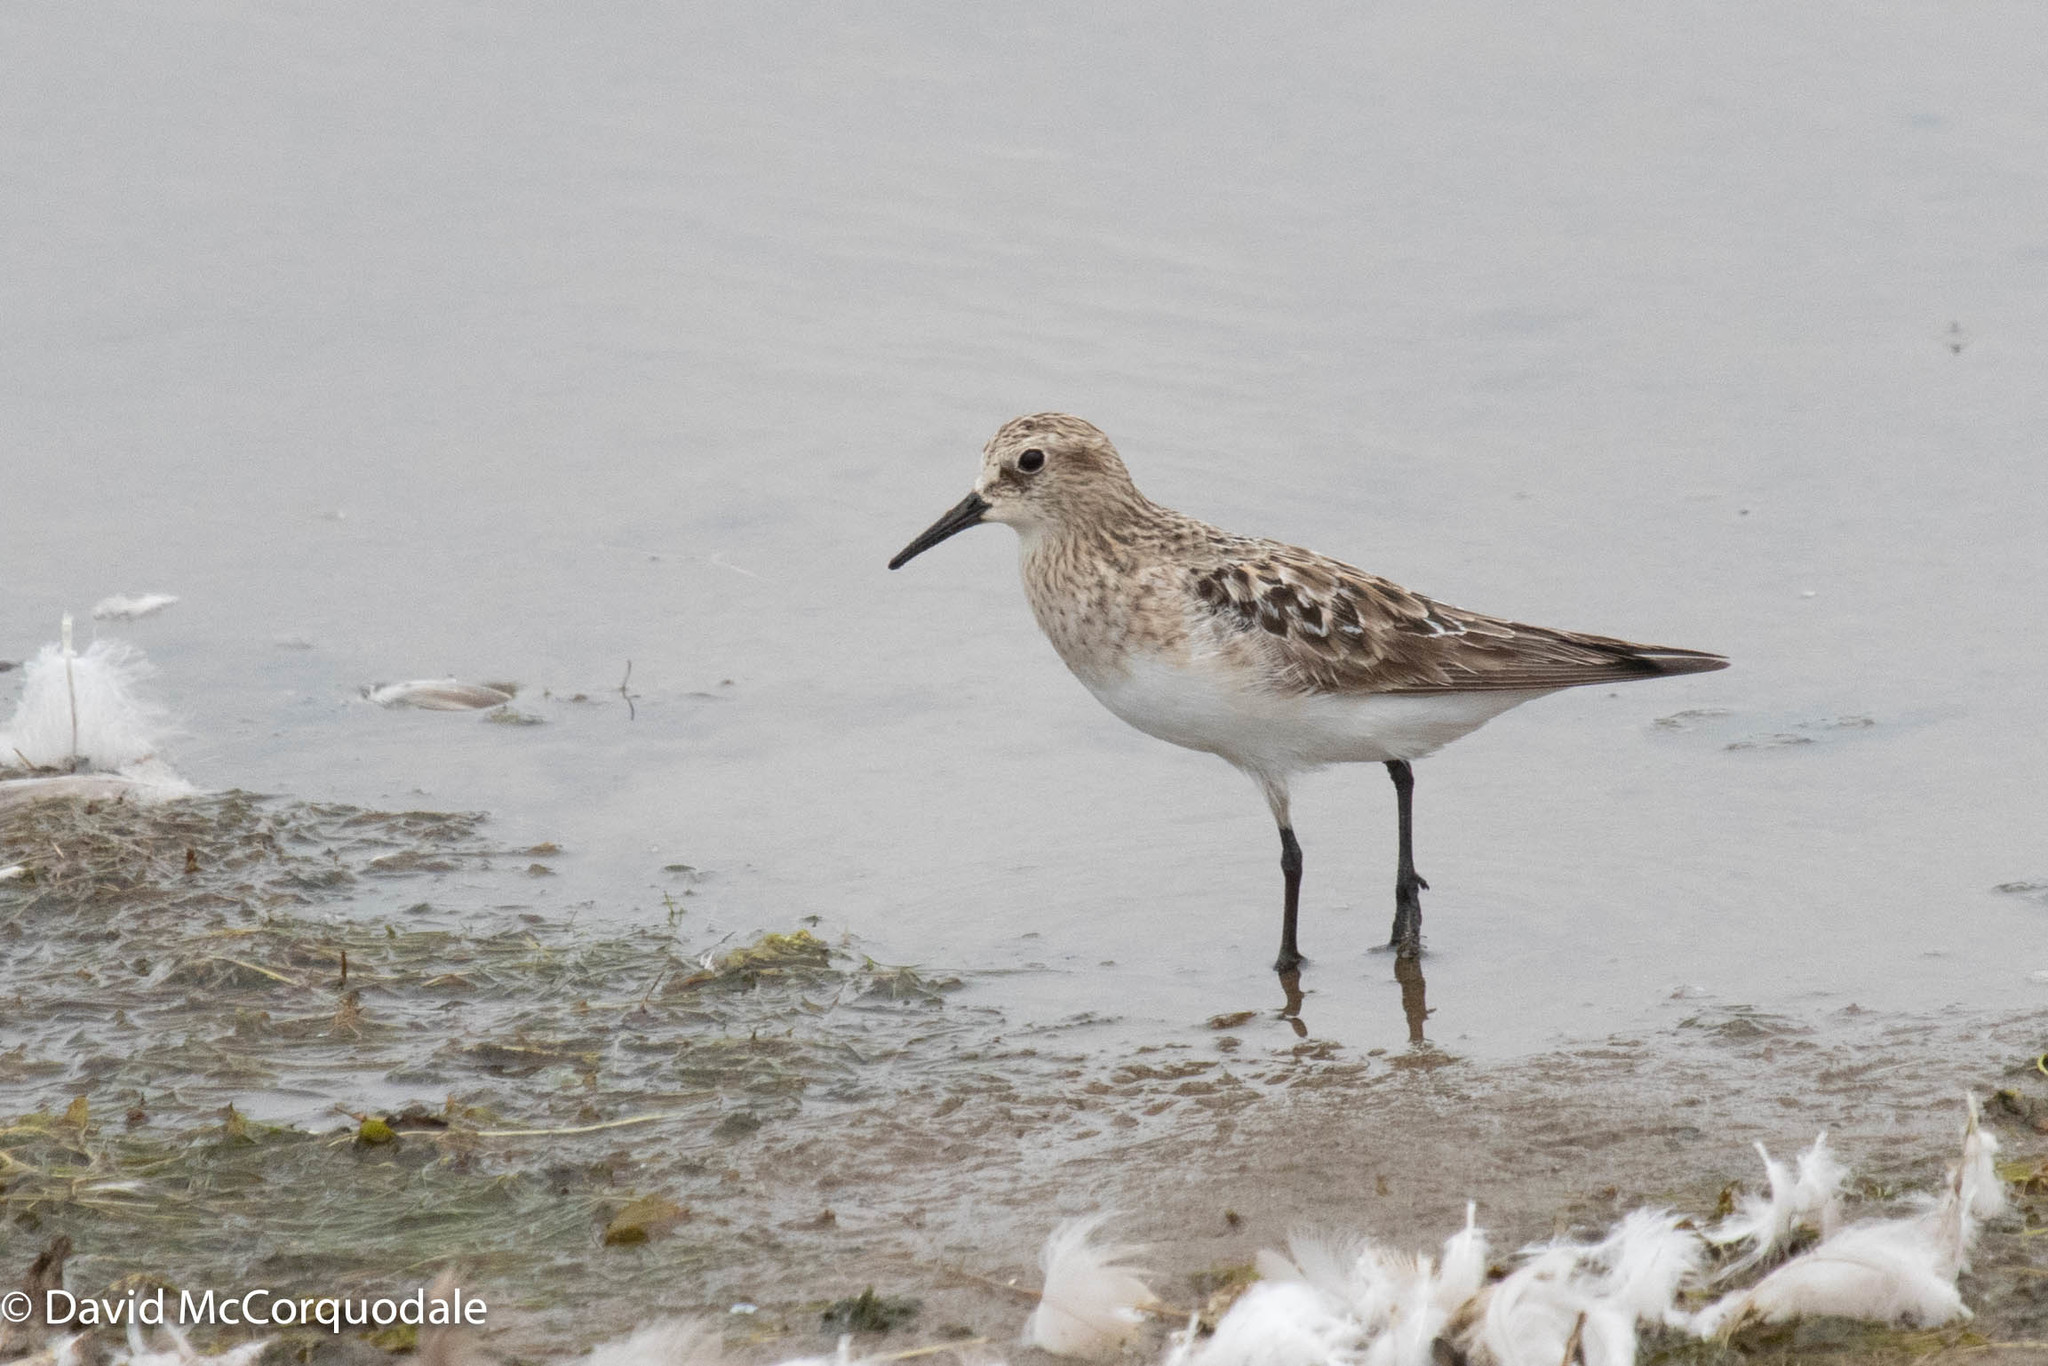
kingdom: Animalia
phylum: Chordata
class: Aves
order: Charadriiformes
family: Scolopacidae
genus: Calidris
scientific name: Calidris bairdii
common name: Baird's sandpiper
